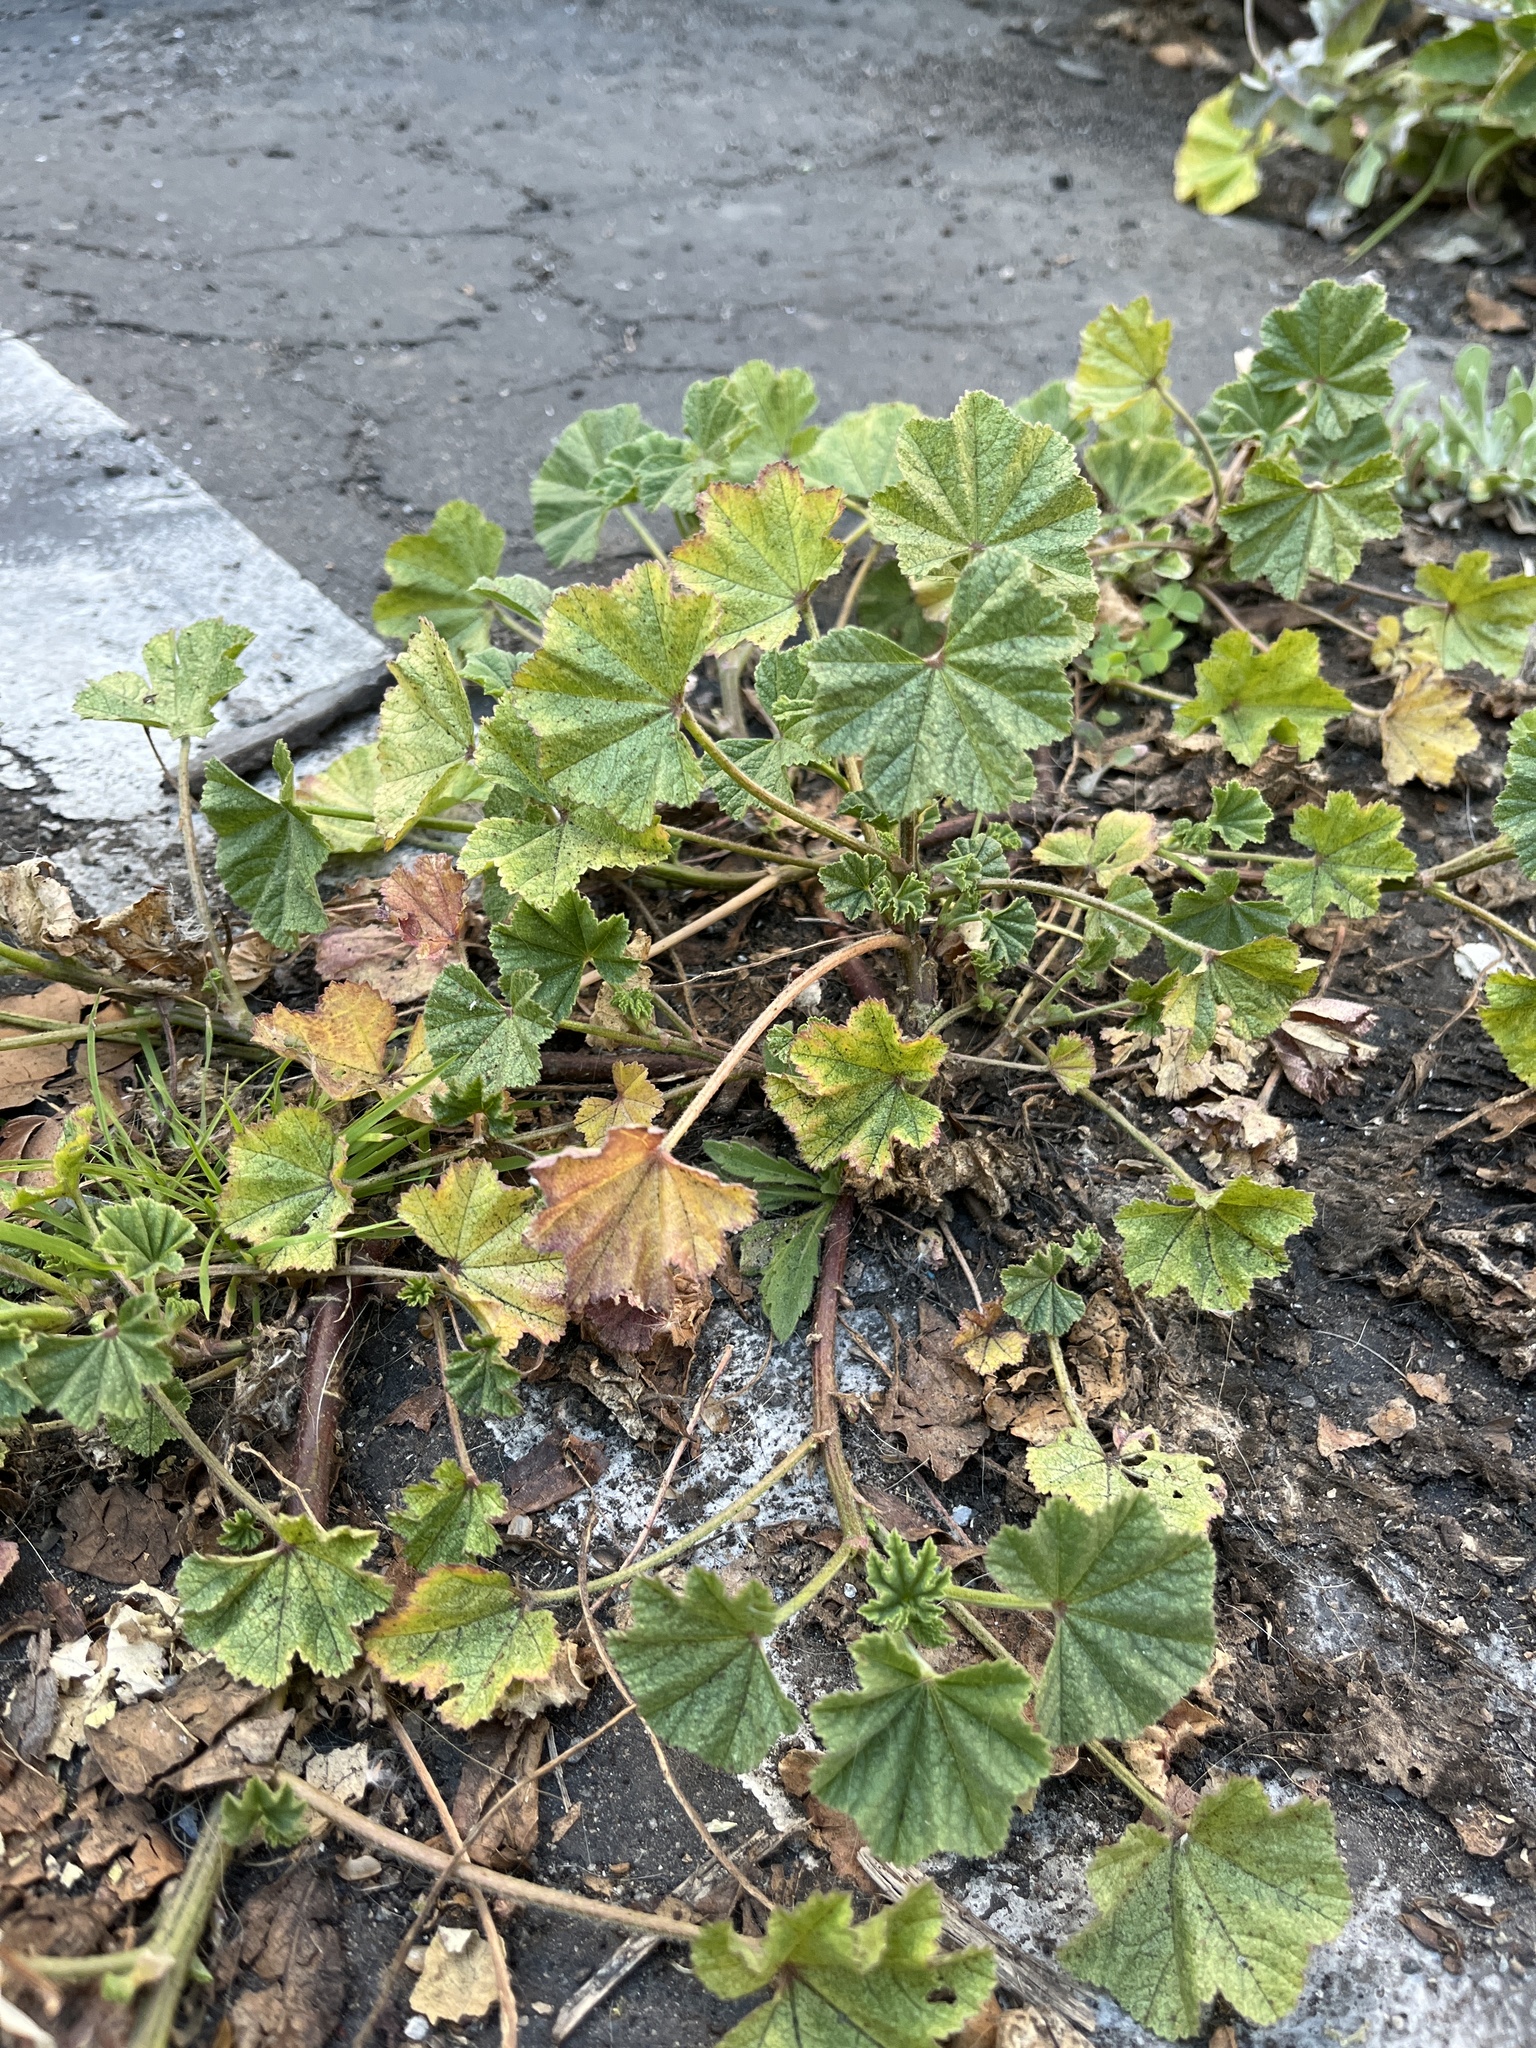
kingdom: Plantae
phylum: Tracheophyta
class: Magnoliopsida
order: Malvales
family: Malvaceae
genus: Malva
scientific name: Malva parviflora
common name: Least mallow
